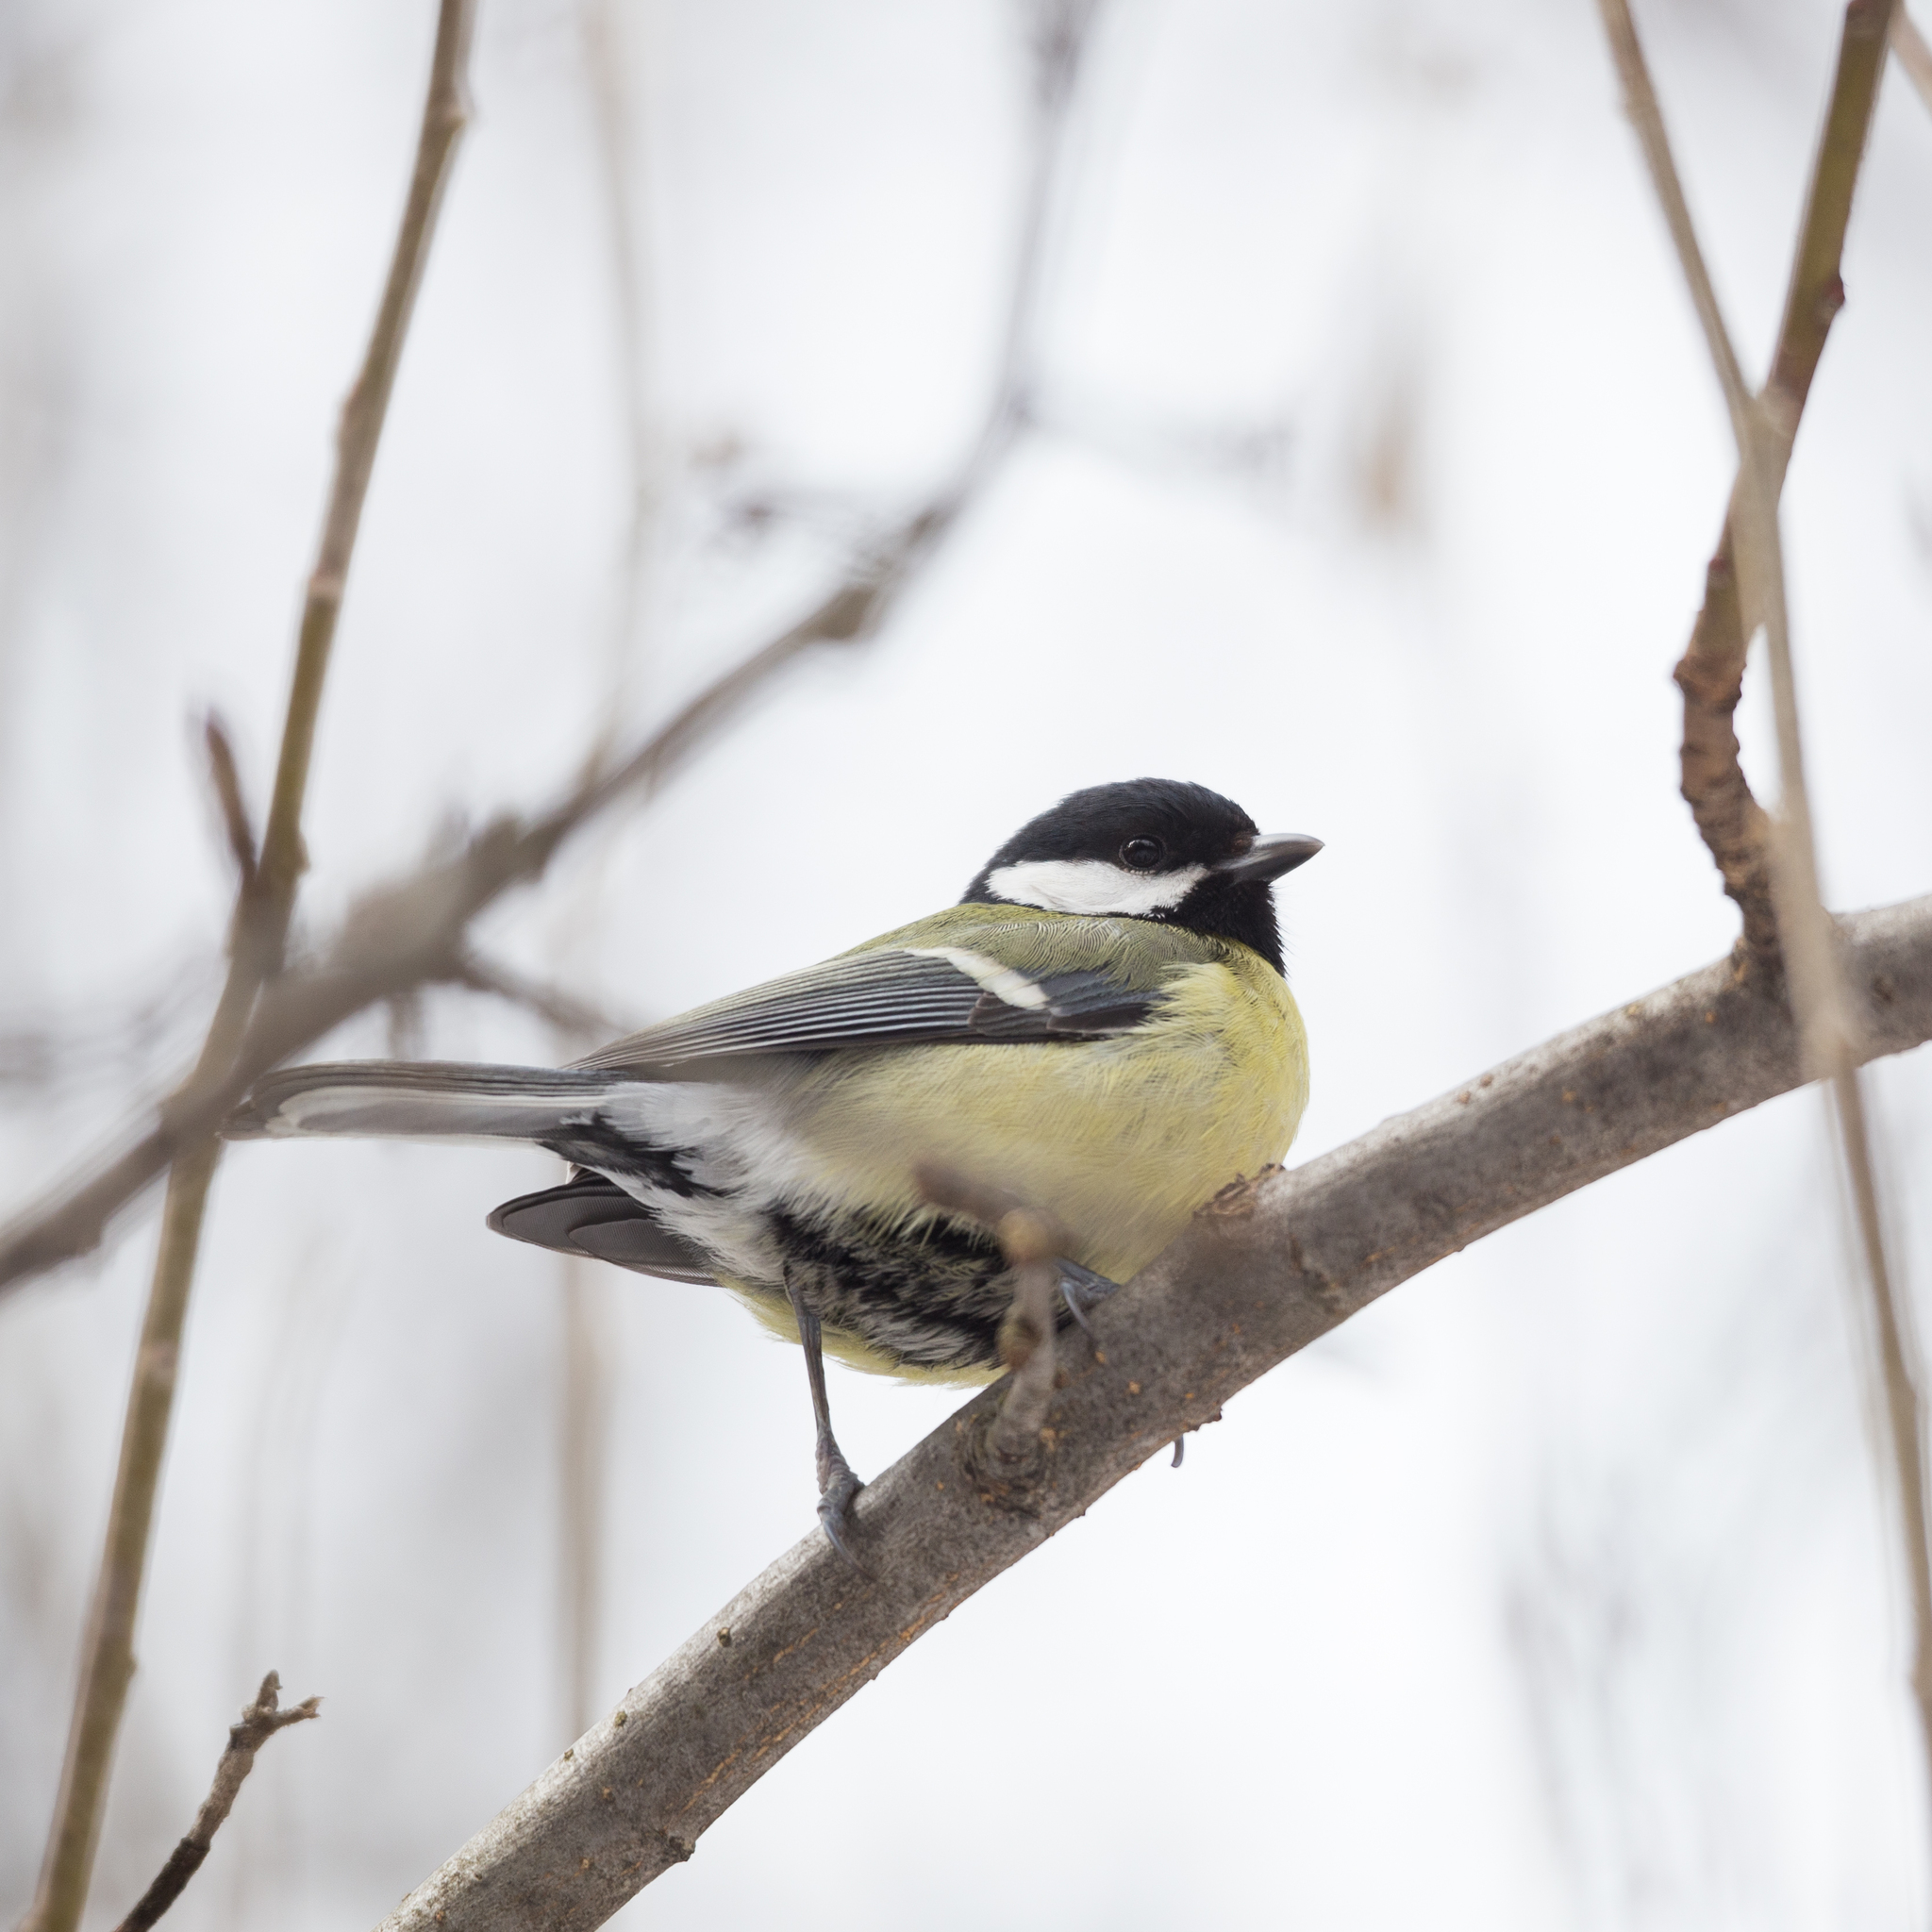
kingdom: Animalia
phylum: Chordata
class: Aves
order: Passeriformes
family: Paridae
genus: Parus
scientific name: Parus major
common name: Great tit
